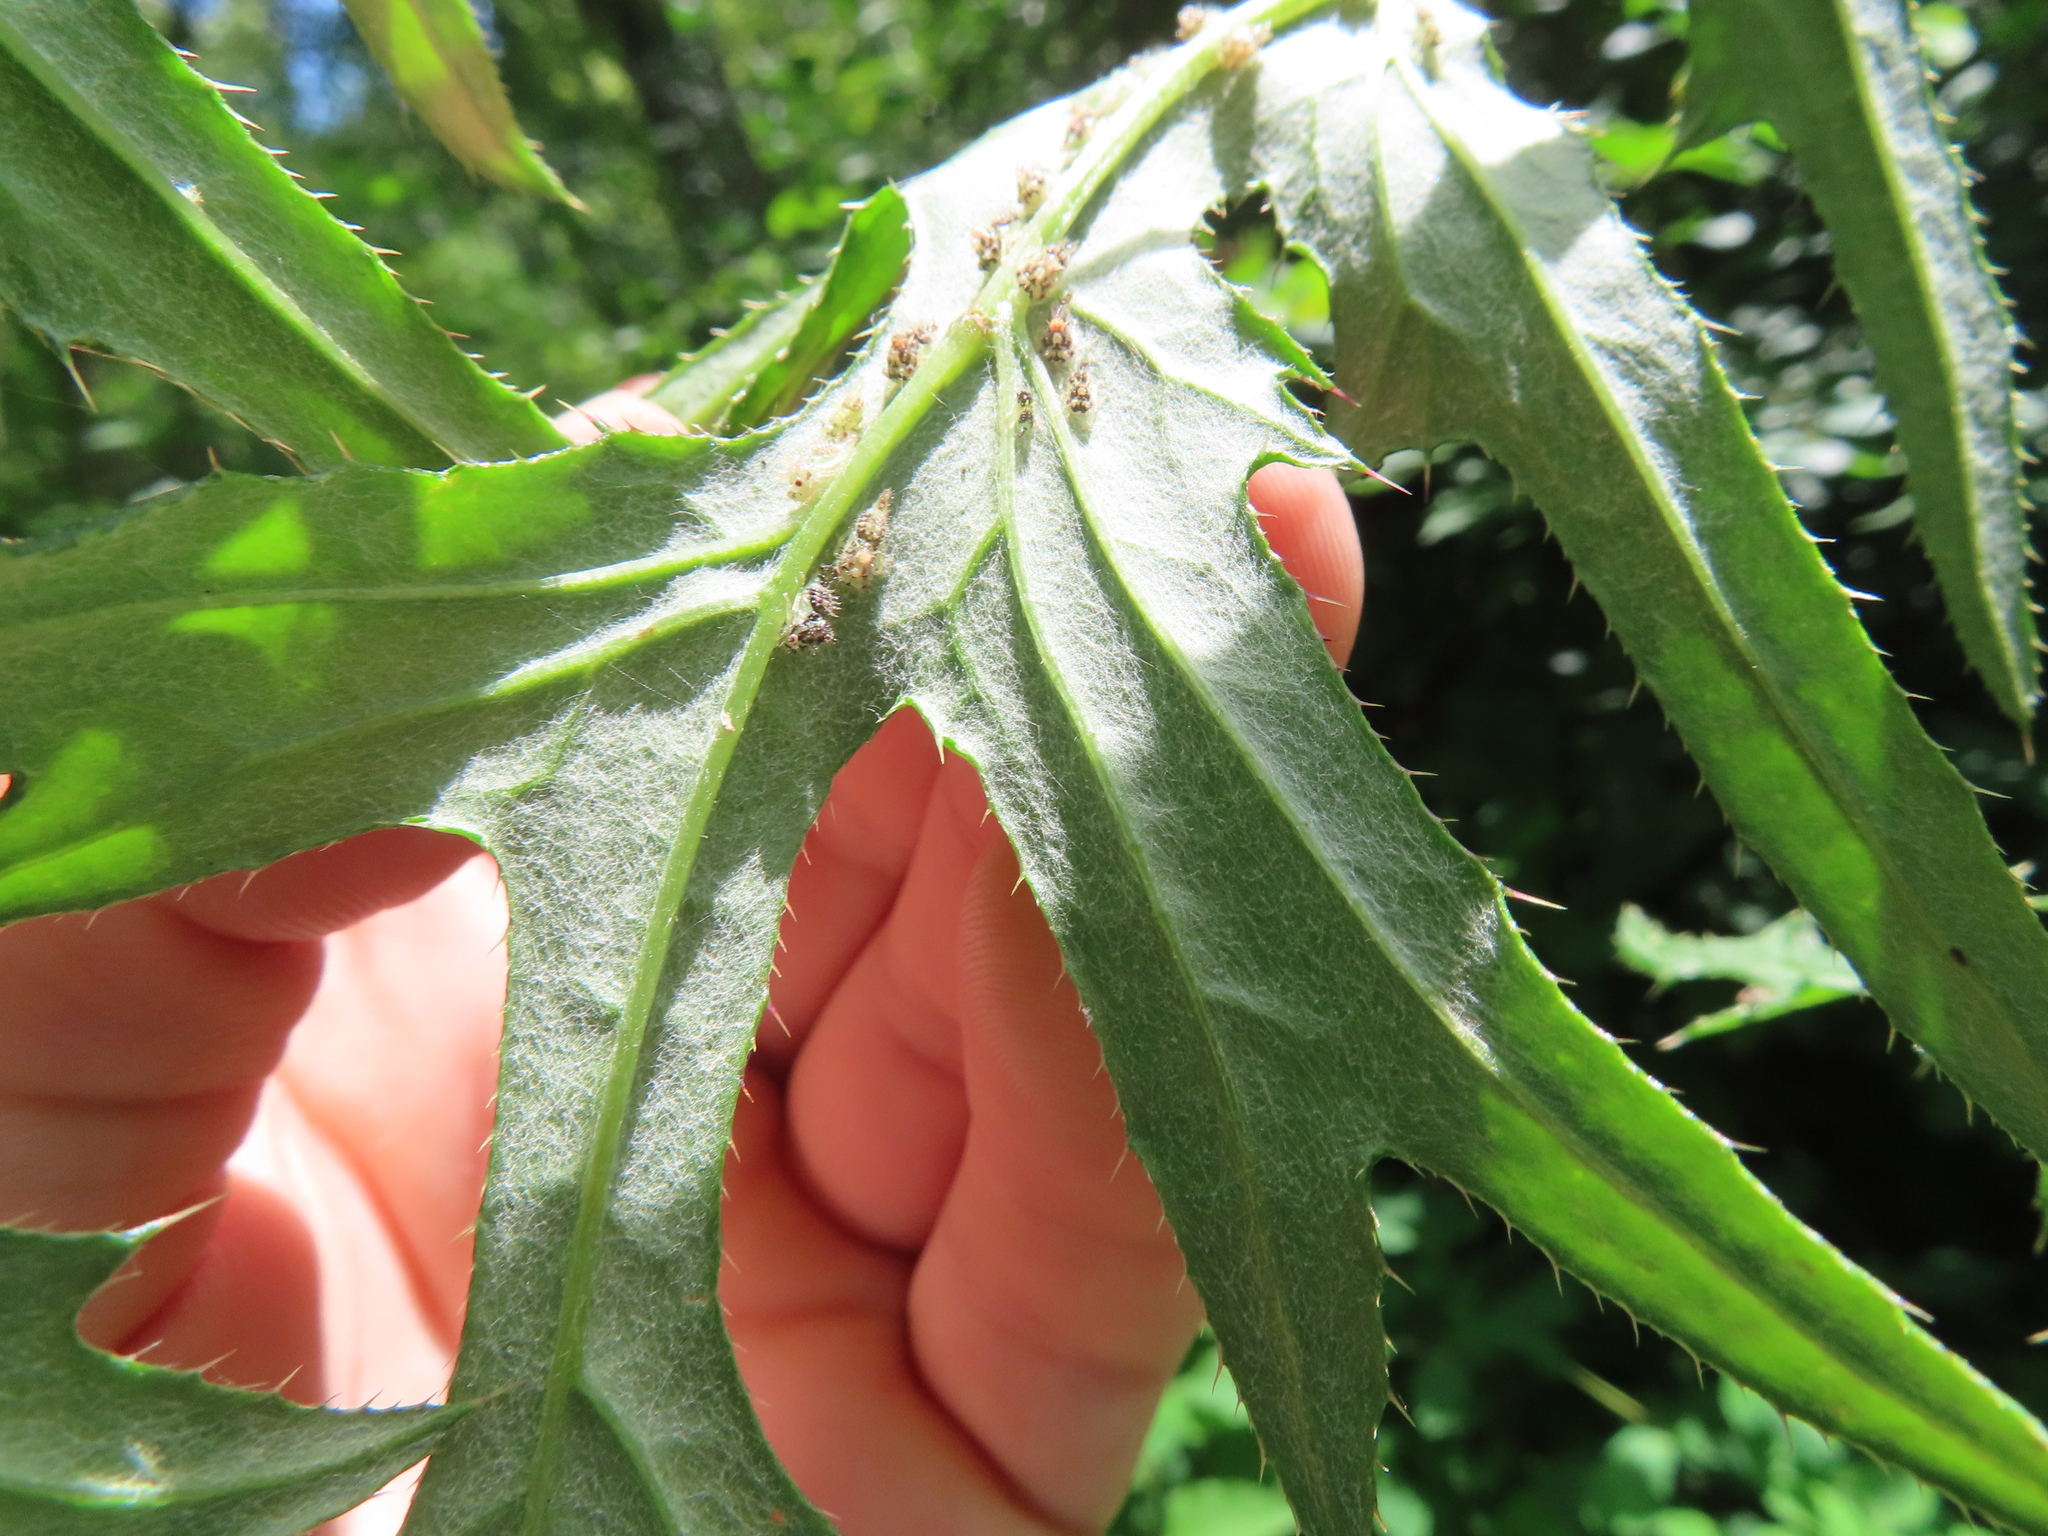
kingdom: Plantae
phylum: Tracheophyta
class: Magnoliopsida
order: Asterales
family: Asteraceae
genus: Cirsium
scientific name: Cirsium muticum
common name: Dunce-nettle
